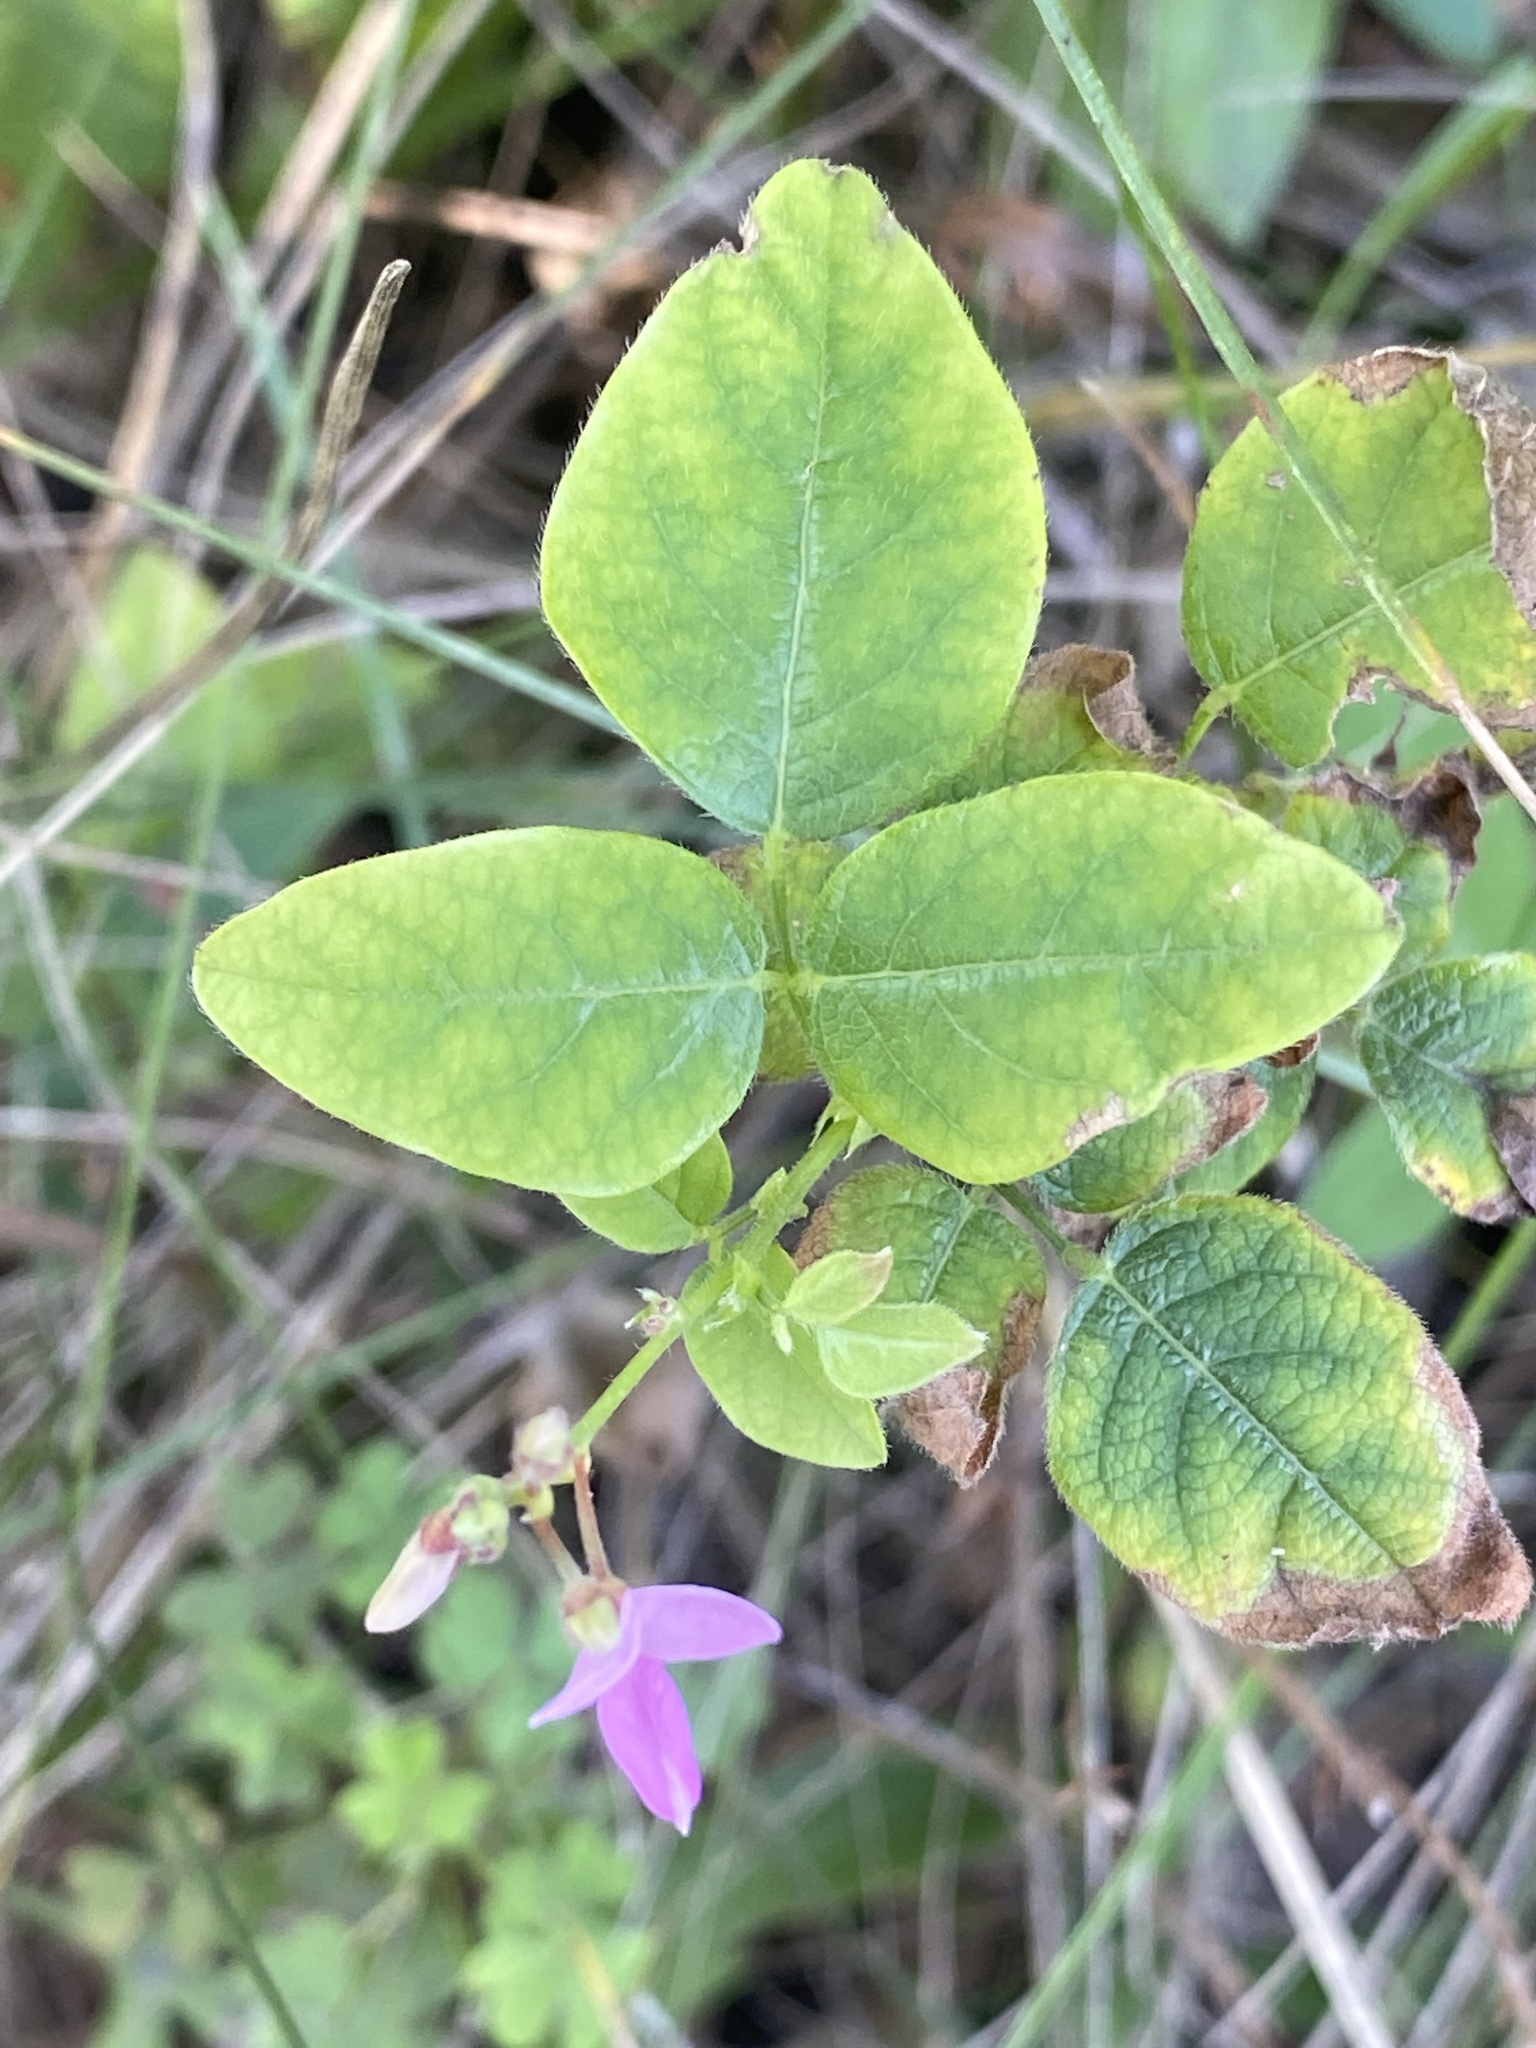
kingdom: Plantae
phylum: Tracheophyta
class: Magnoliopsida
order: Fabales
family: Fabaceae
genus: Desmodium
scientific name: Desmodium canescens
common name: Hoary tick-clover
